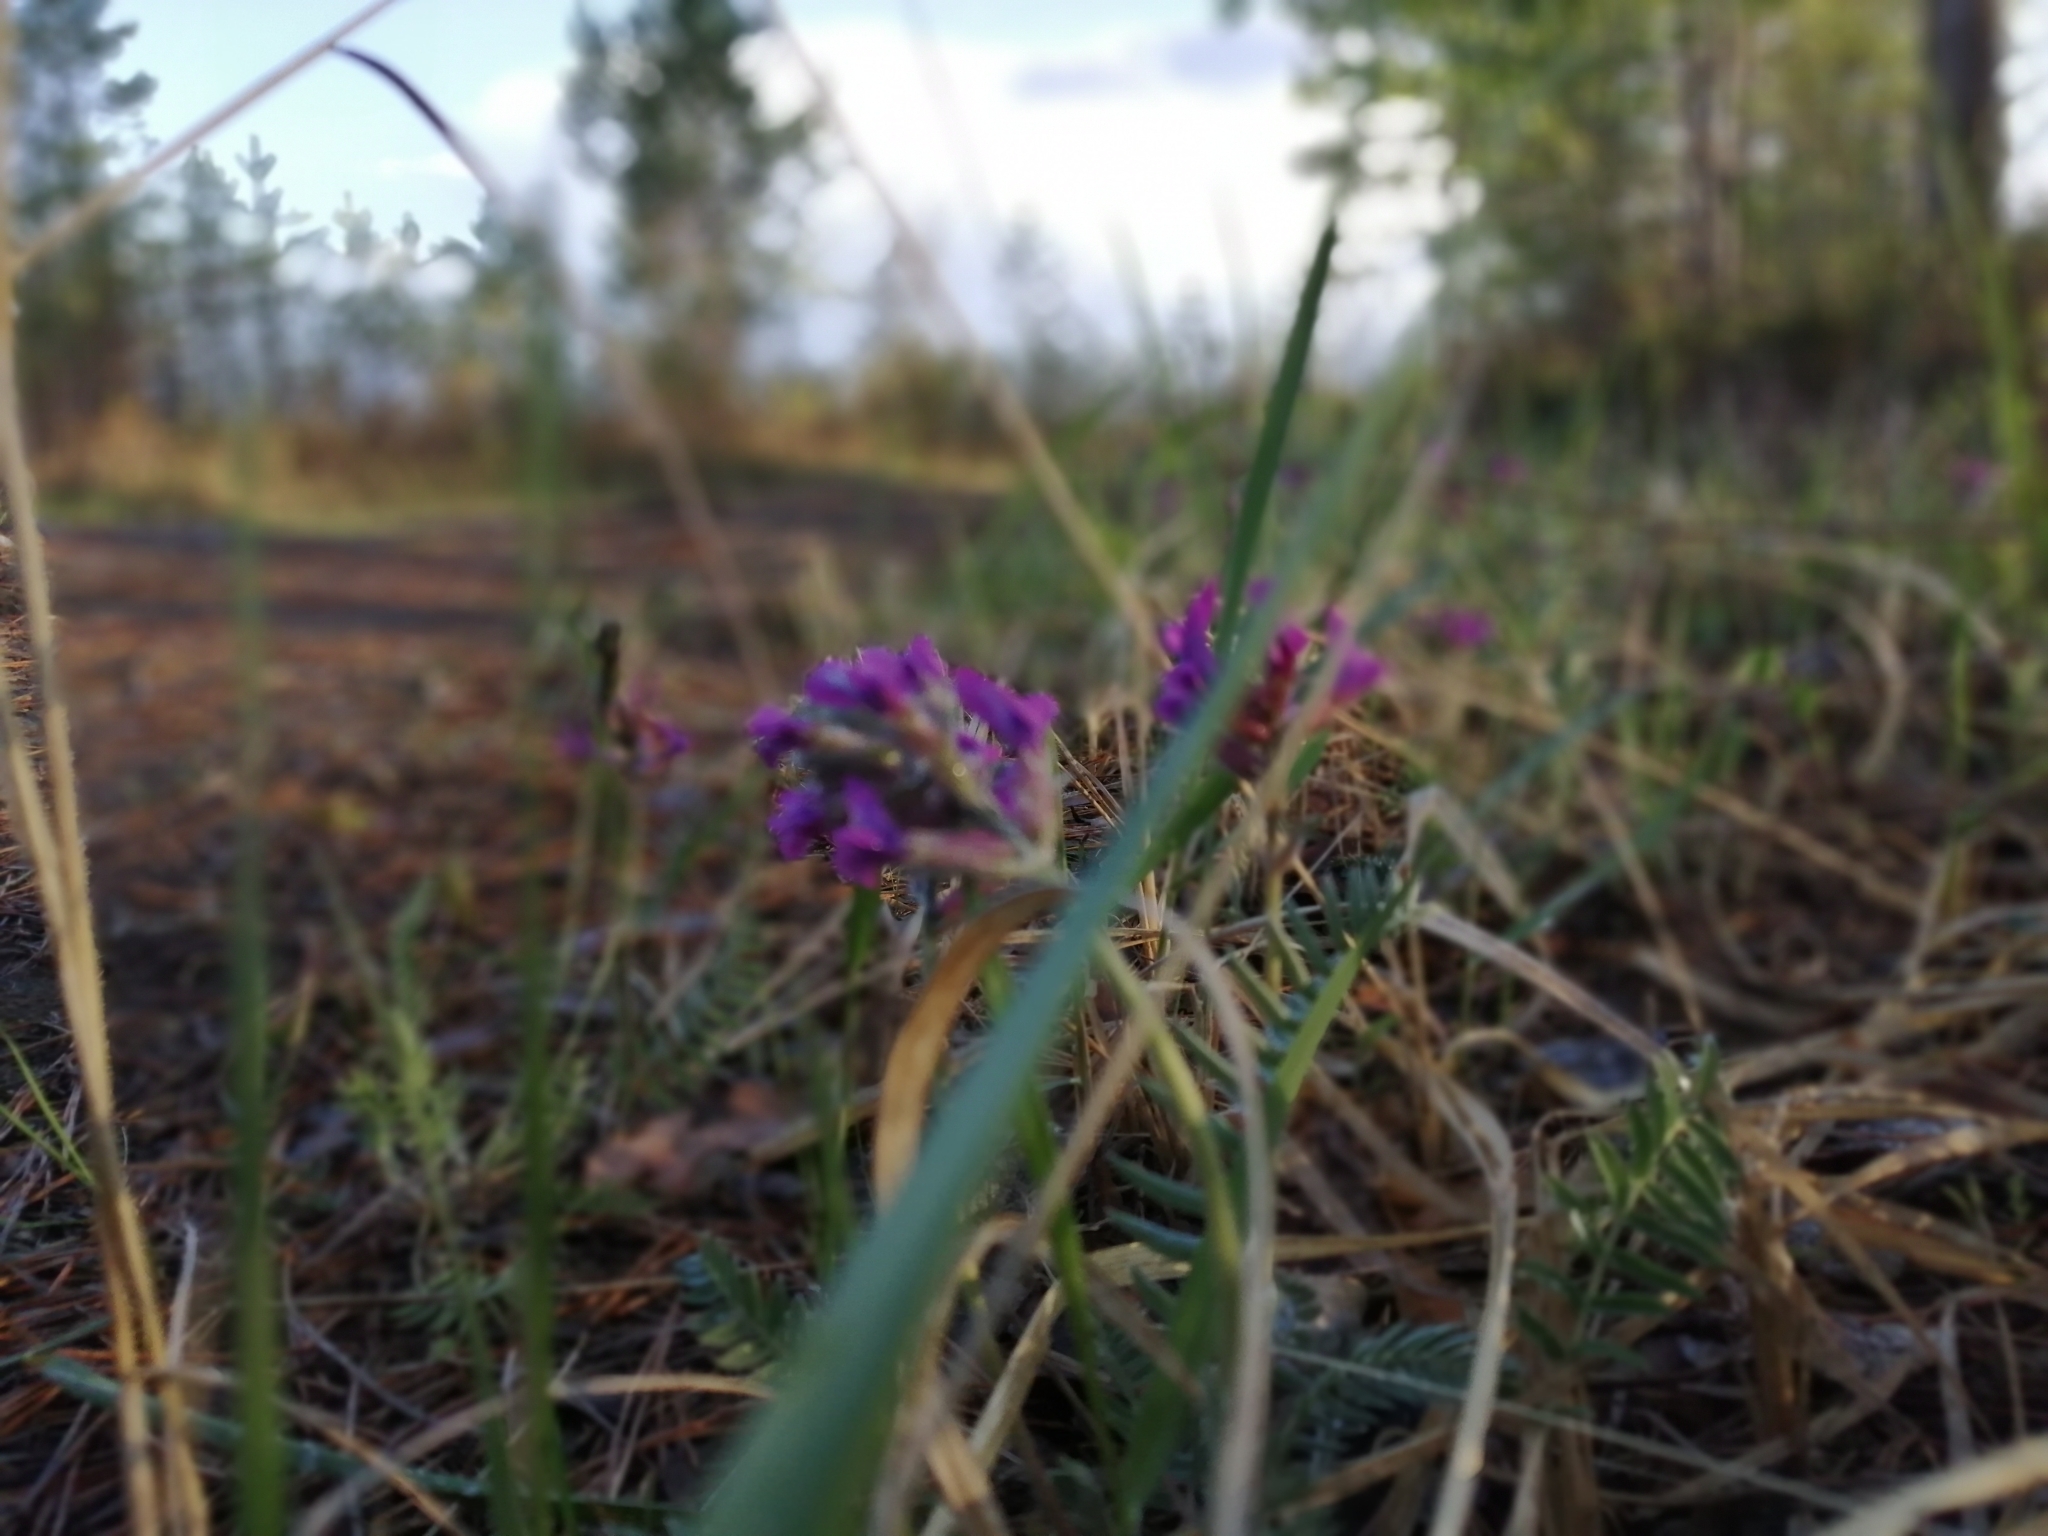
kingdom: Plantae
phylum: Tracheophyta
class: Magnoliopsida
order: Fabales
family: Fabaceae
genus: Oxytropis
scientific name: Oxytropis strobilacea
